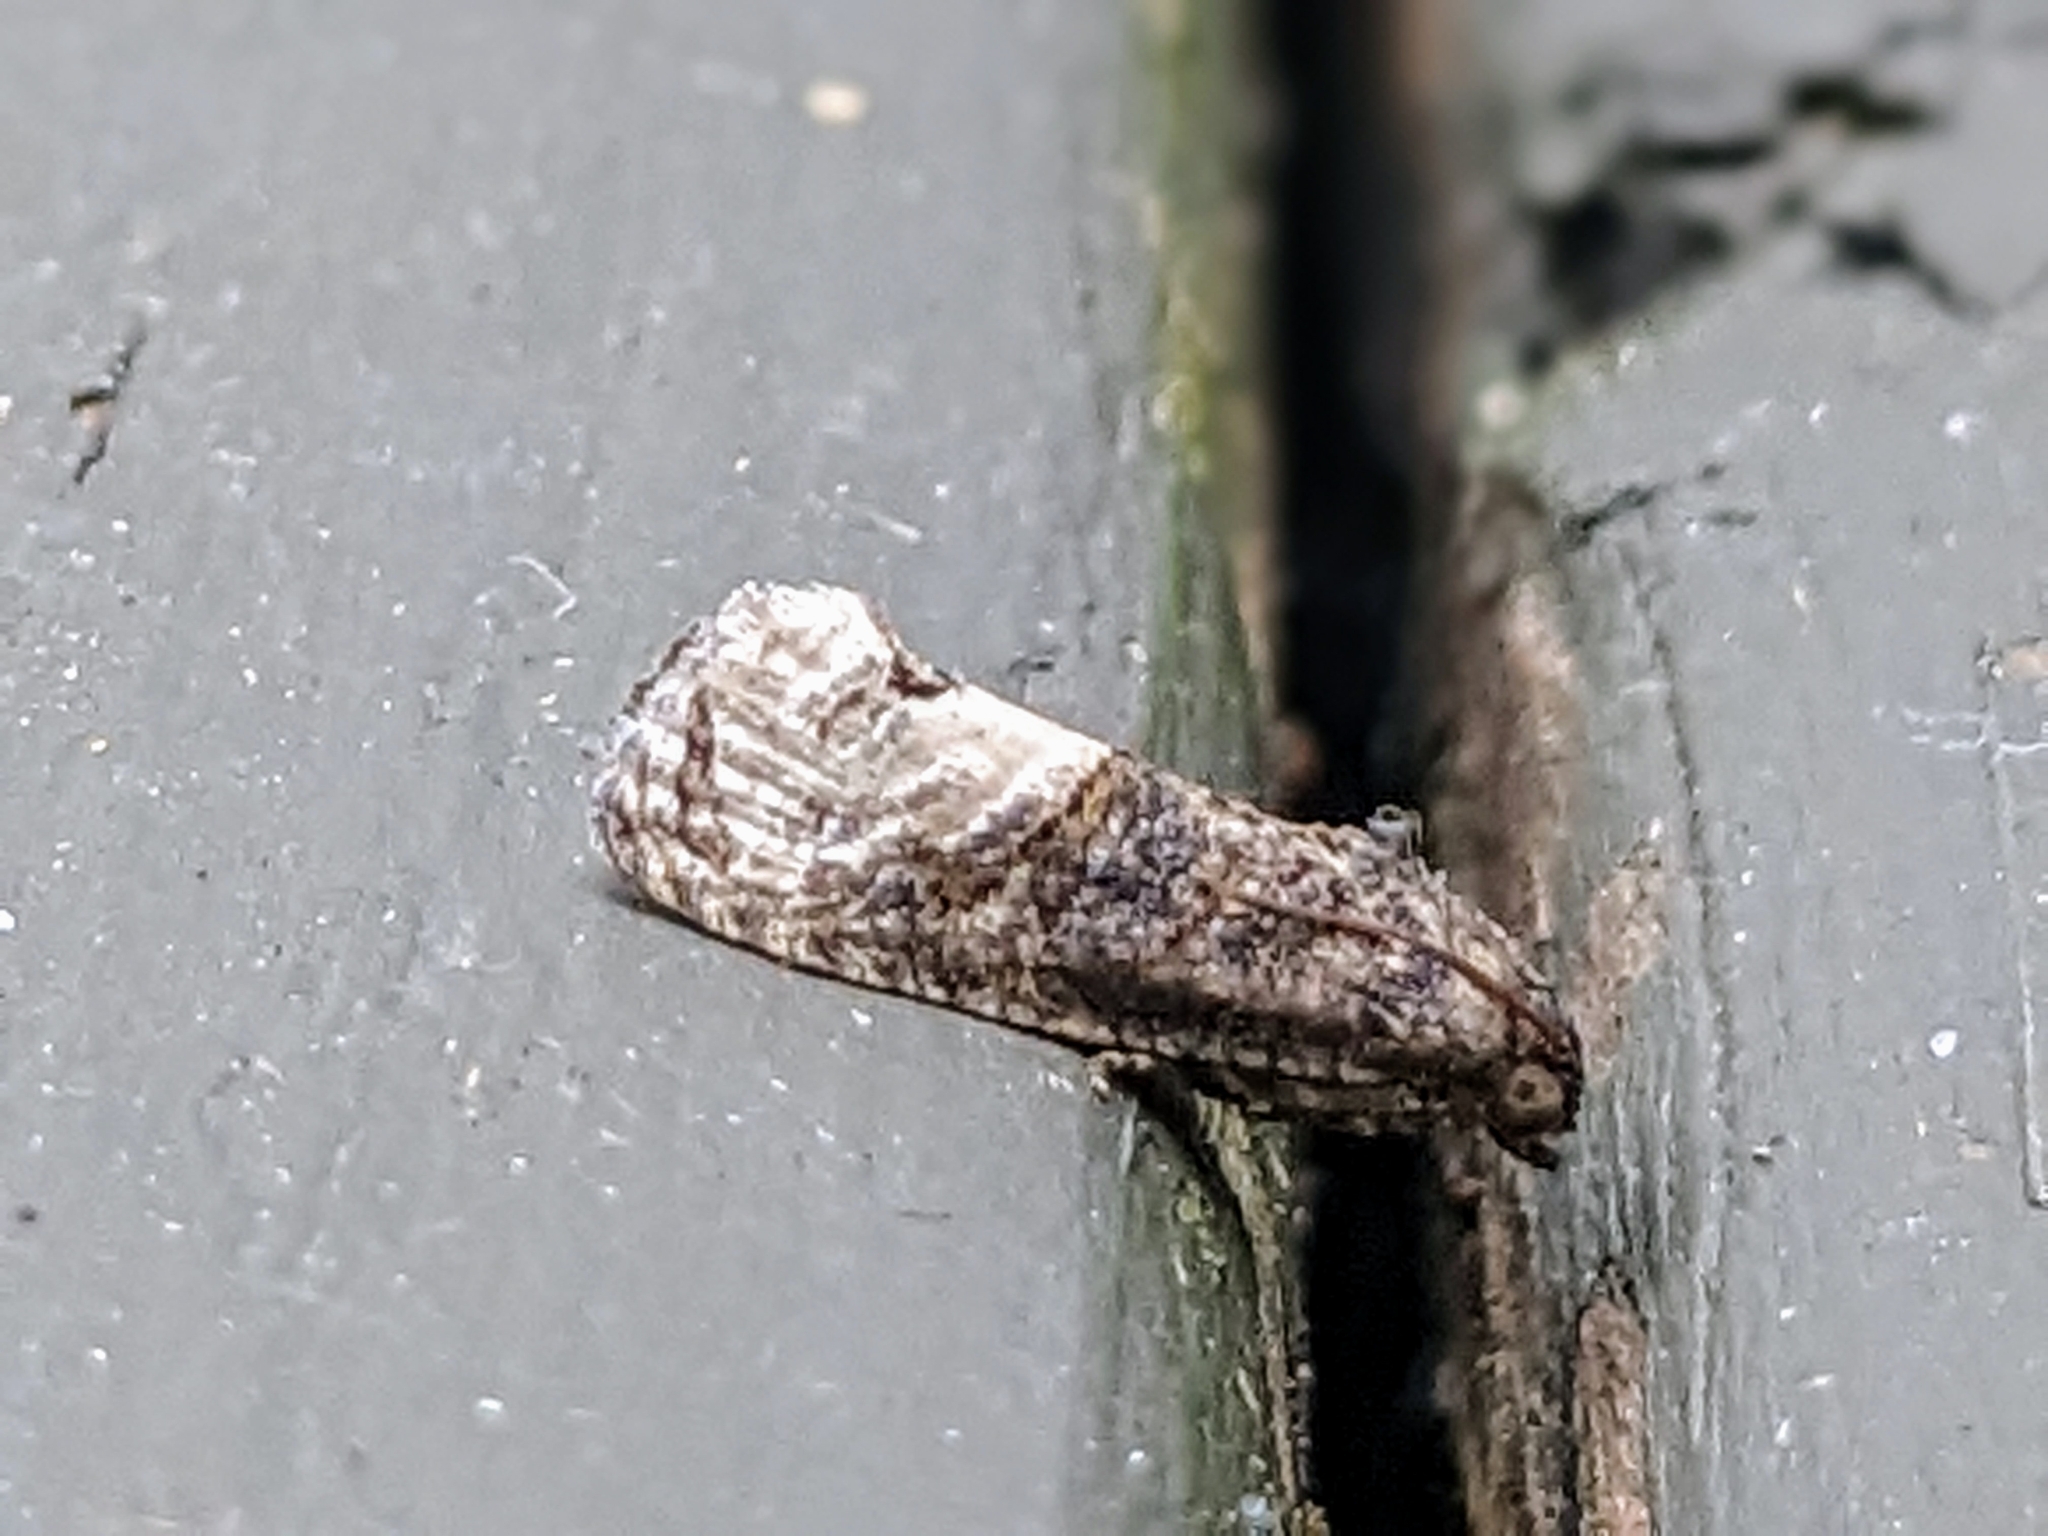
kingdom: Animalia
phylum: Arthropoda
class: Insecta
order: Lepidoptera
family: Tortricidae
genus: Ecdytolopha
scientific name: Ecdytolopha insiticiana
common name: Locust twig borer moth
